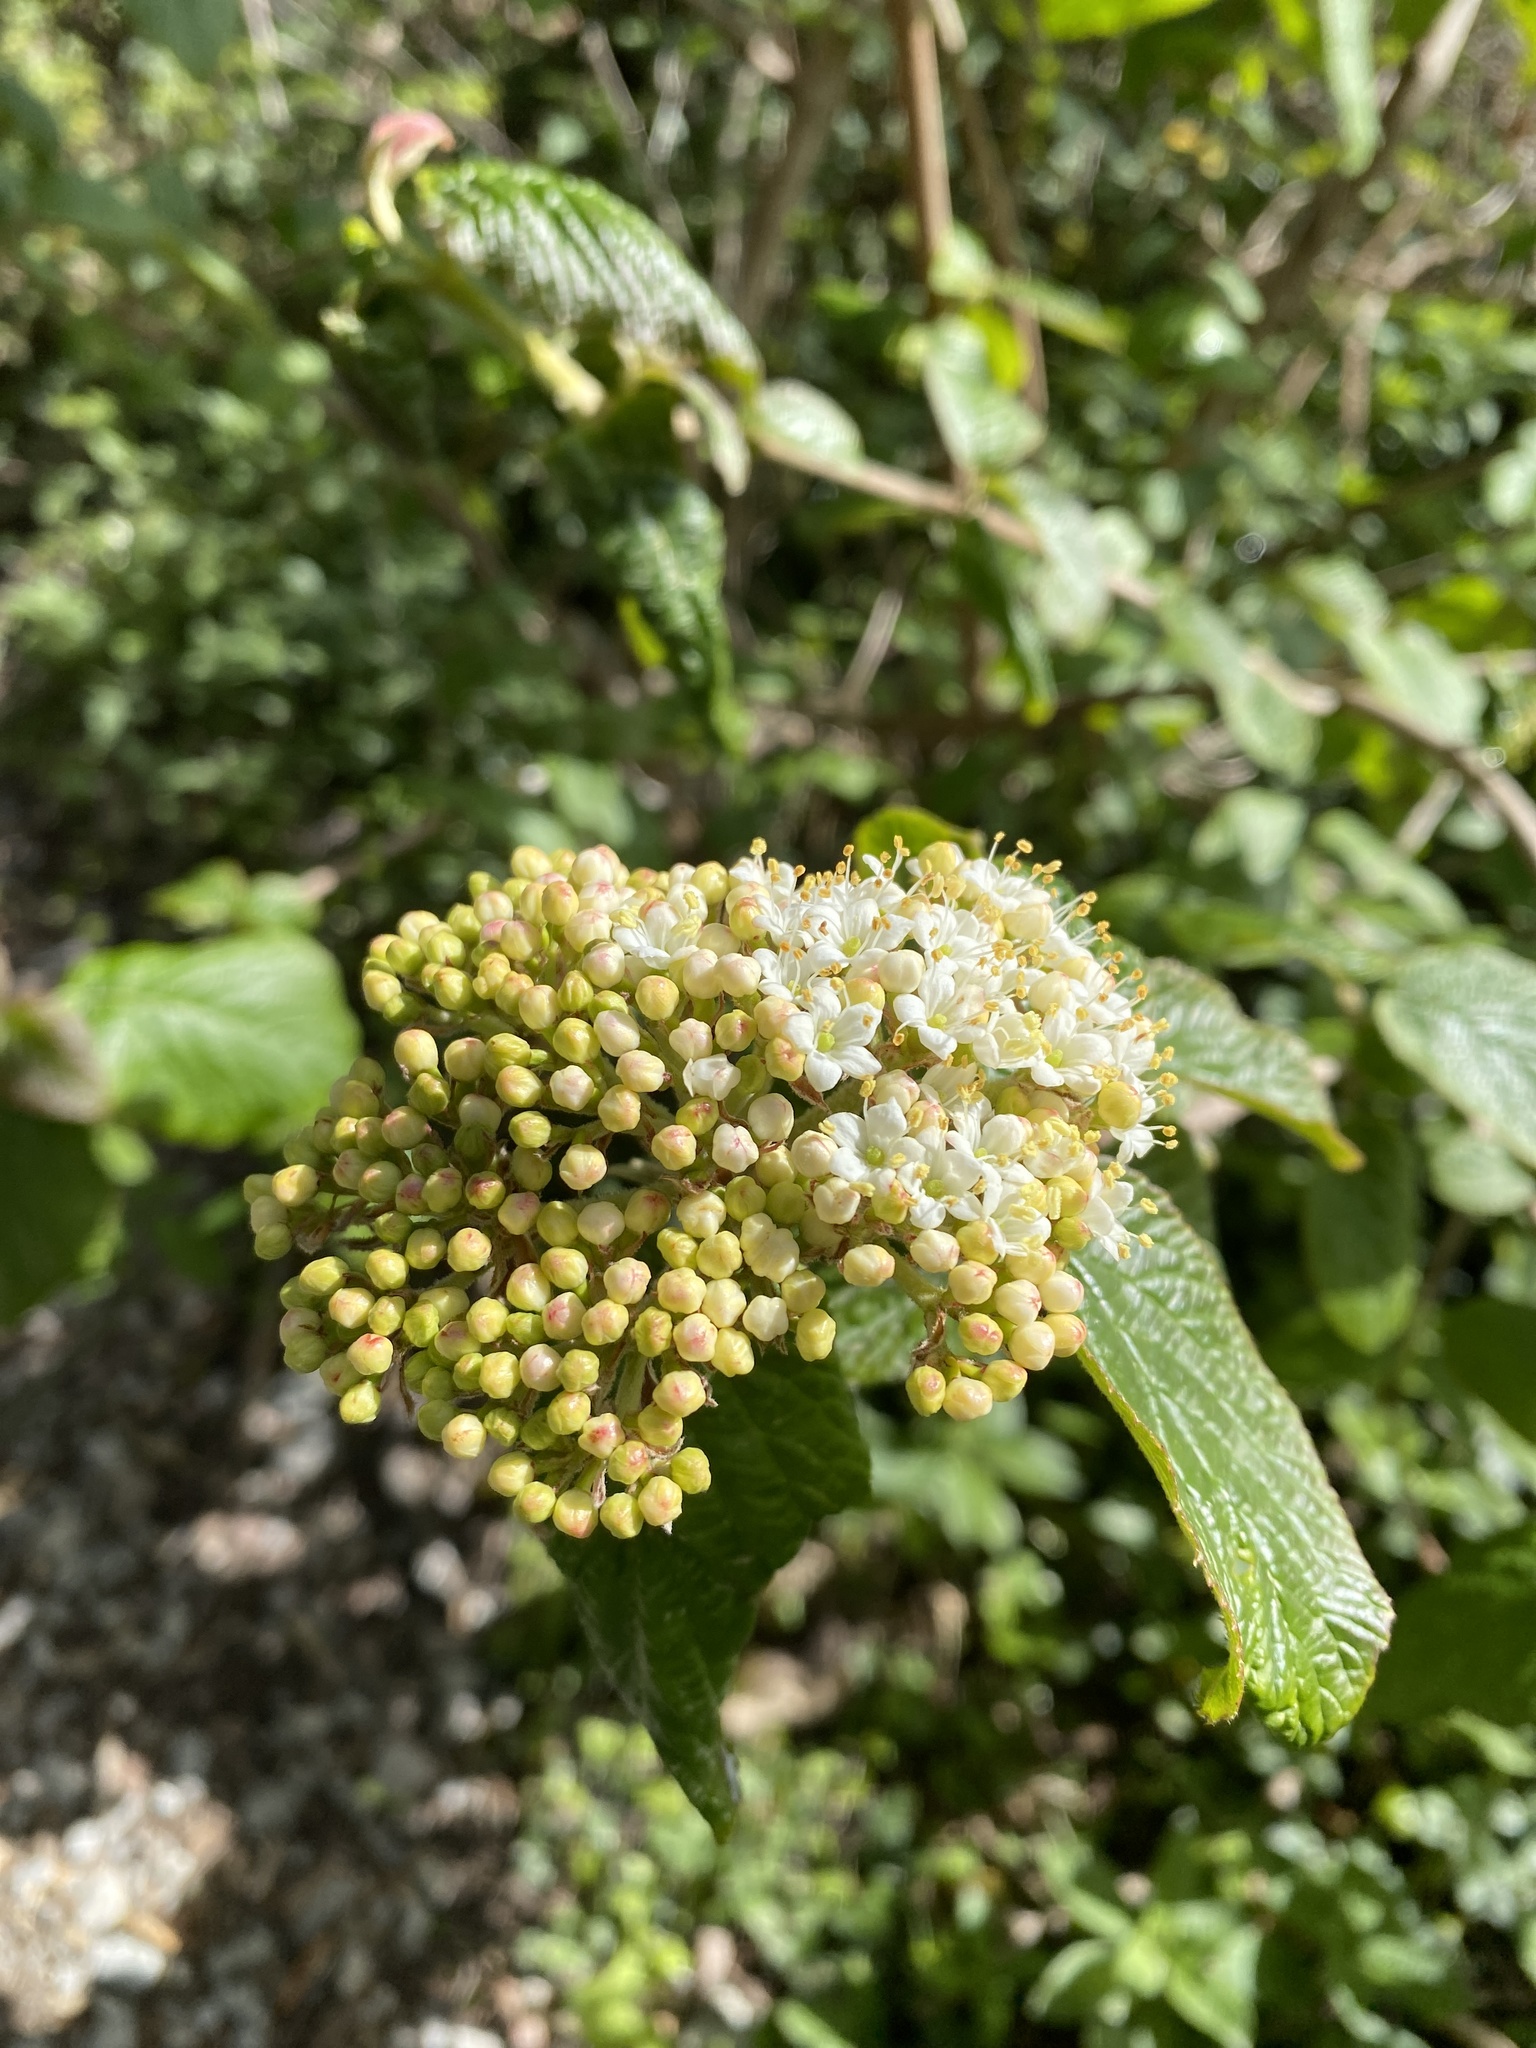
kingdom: Plantae
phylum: Tracheophyta
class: Magnoliopsida
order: Dipsacales
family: Viburnaceae
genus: Viburnum
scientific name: Viburnum lantana
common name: Wayfaring tree
